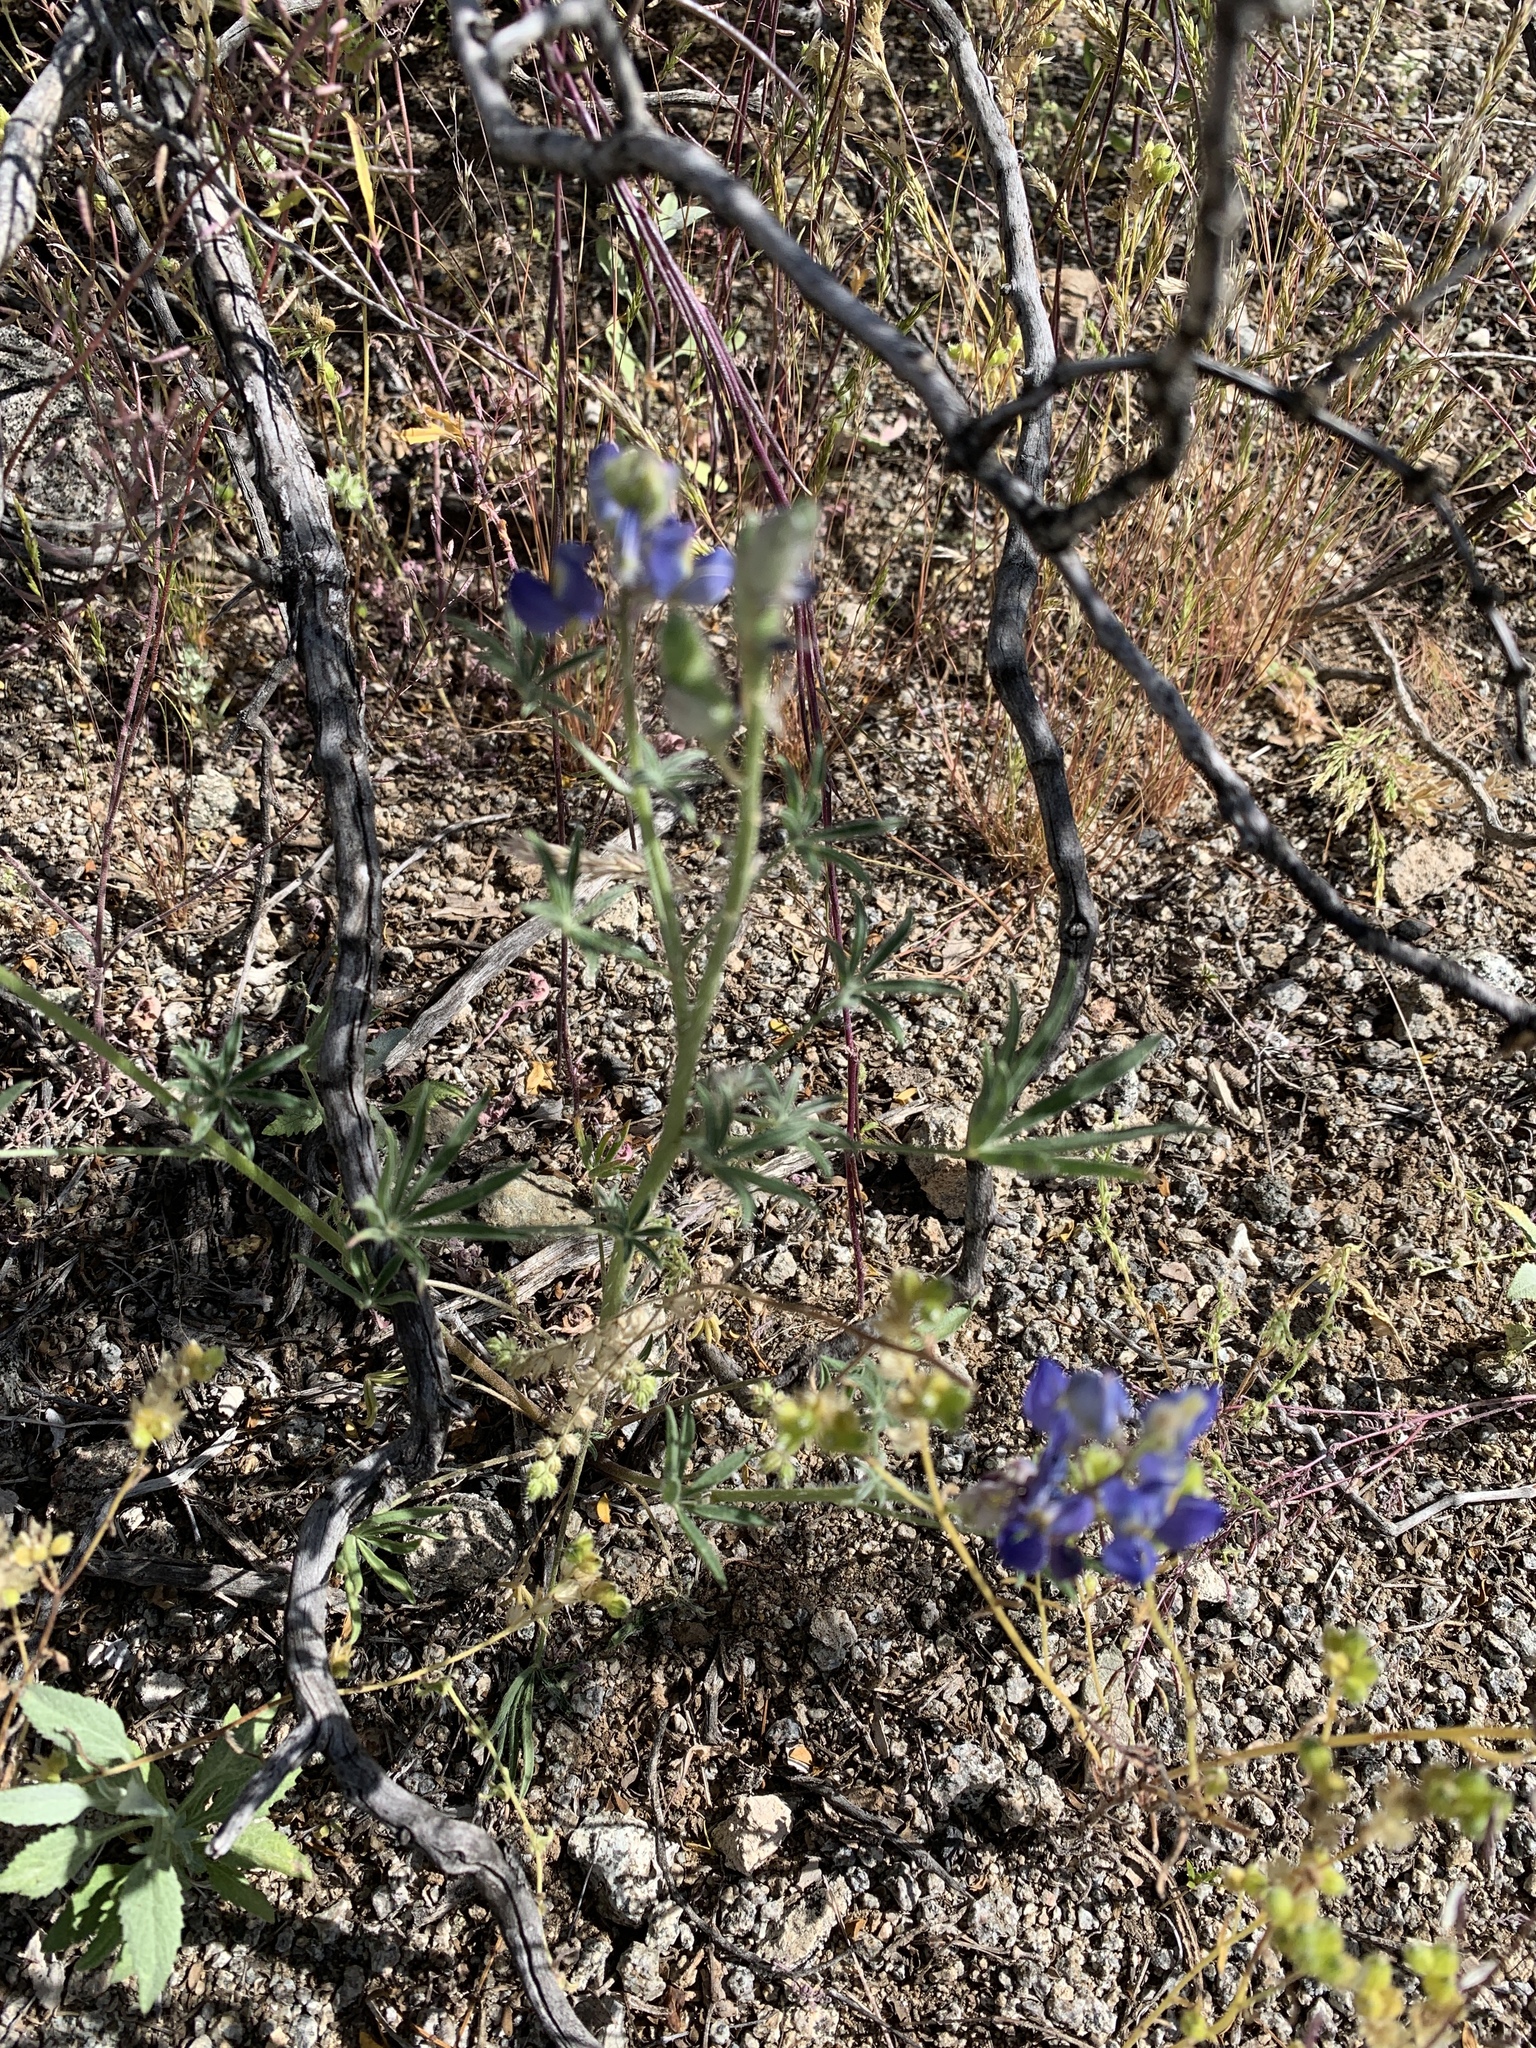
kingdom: Plantae
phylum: Tracheophyta
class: Magnoliopsida
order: Fabales
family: Fabaceae
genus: Lupinus
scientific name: Lupinus sparsiflorus
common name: Coulter's lupine
